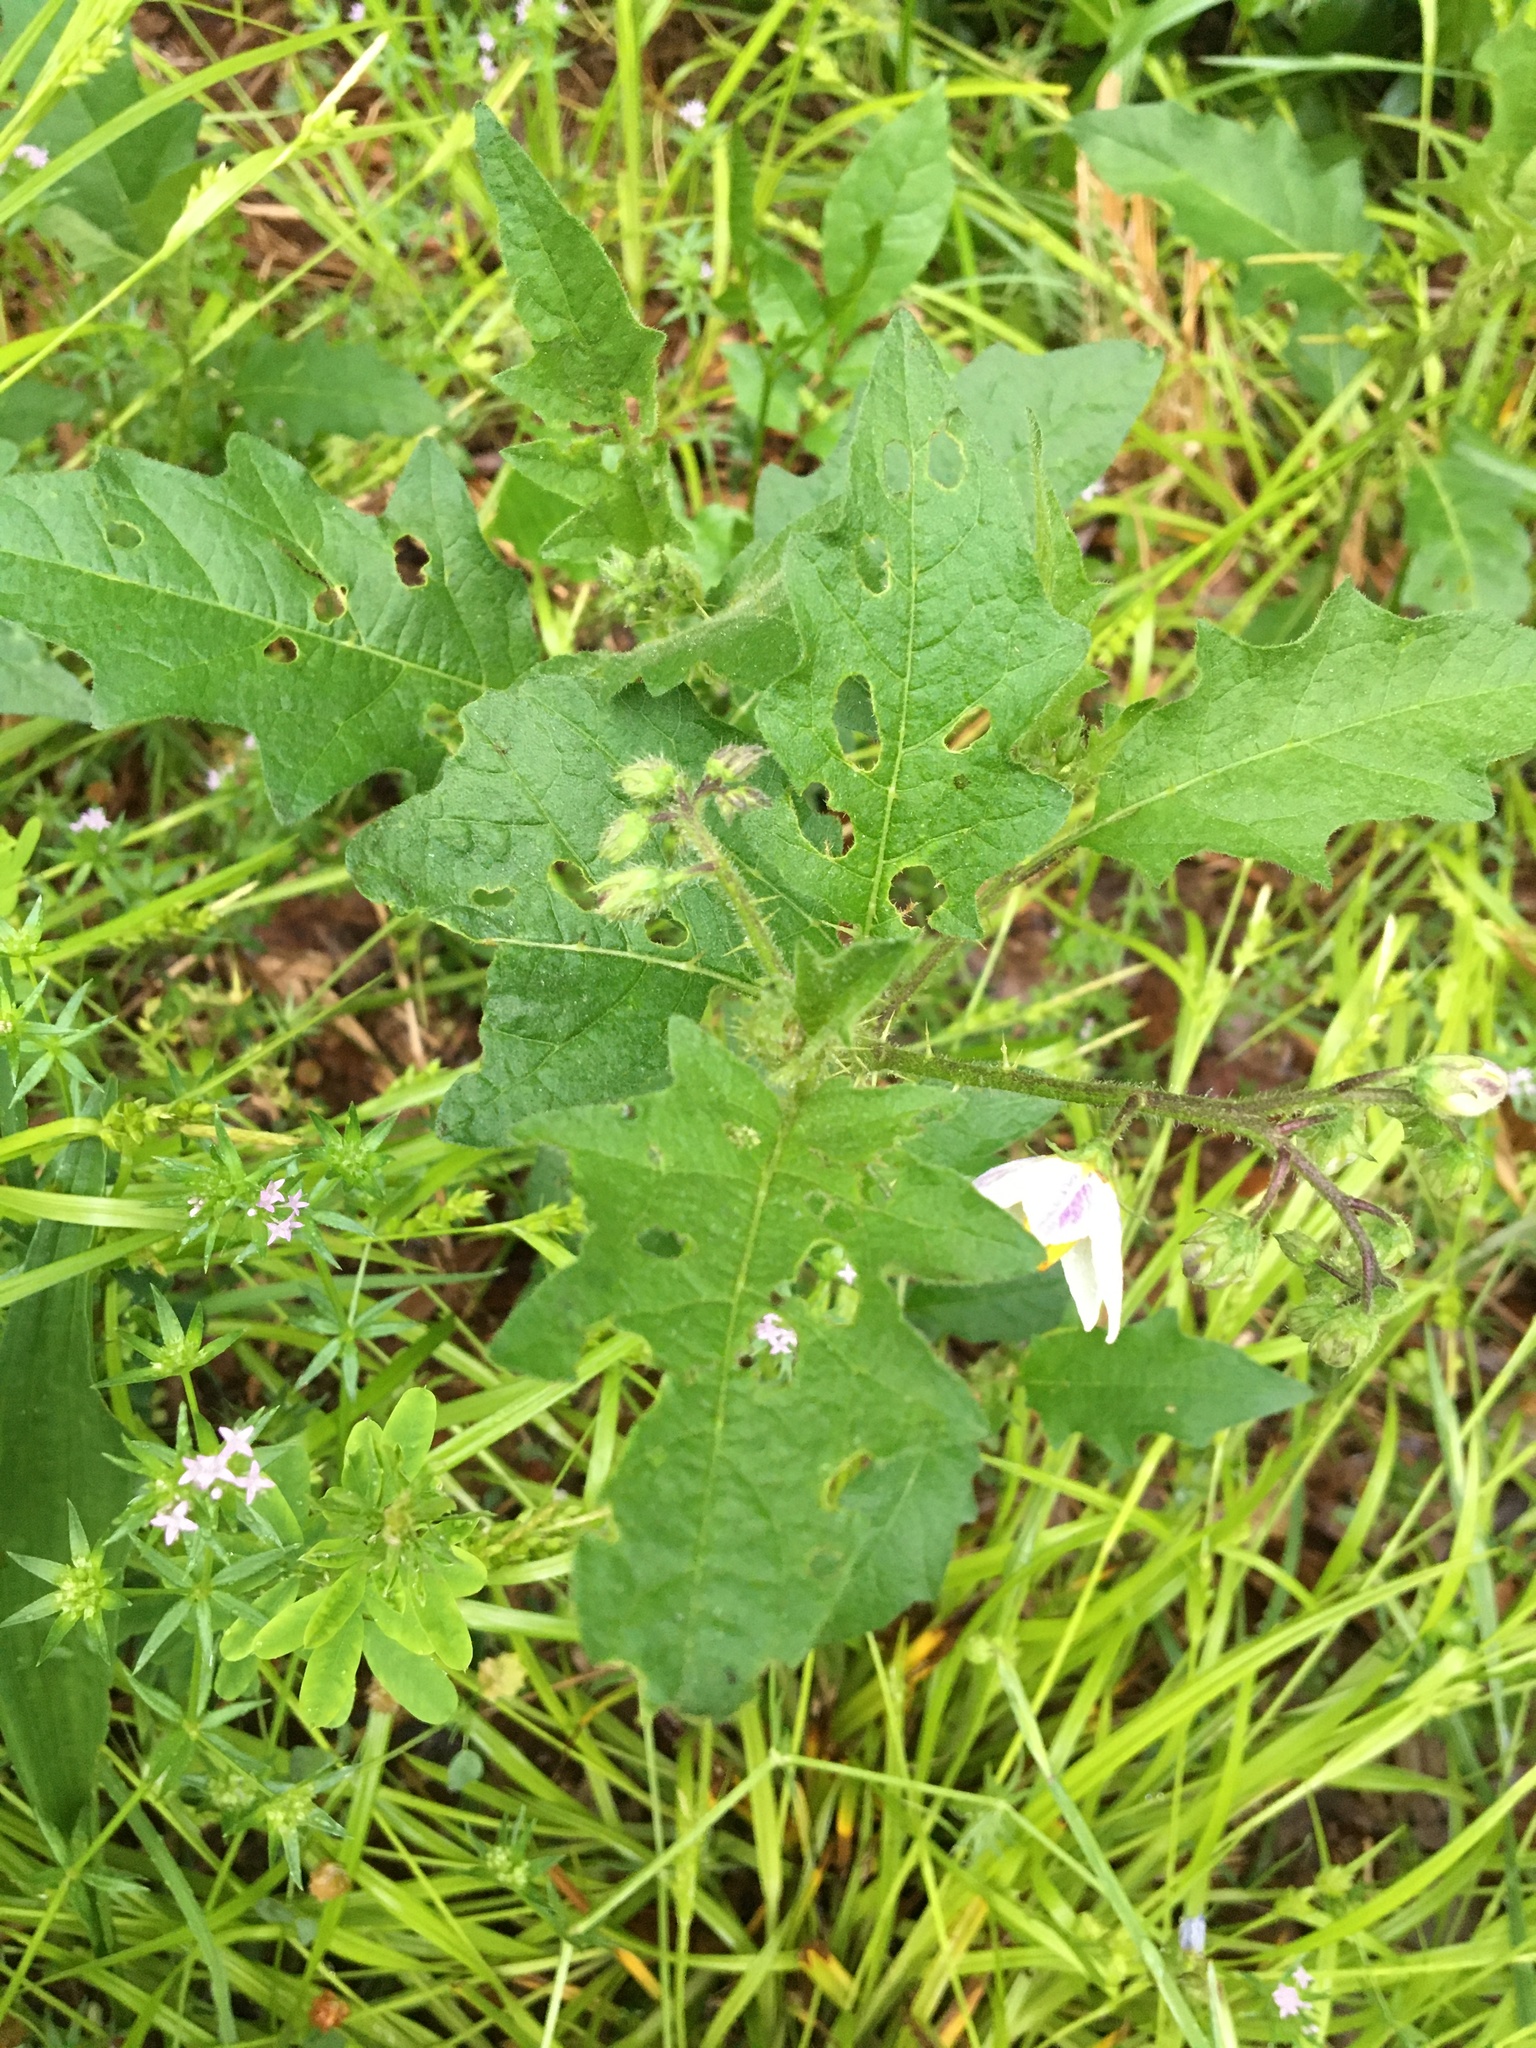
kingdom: Plantae
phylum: Tracheophyta
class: Magnoliopsida
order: Solanales
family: Solanaceae
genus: Solanum
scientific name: Solanum carolinense
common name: Horse-nettle
